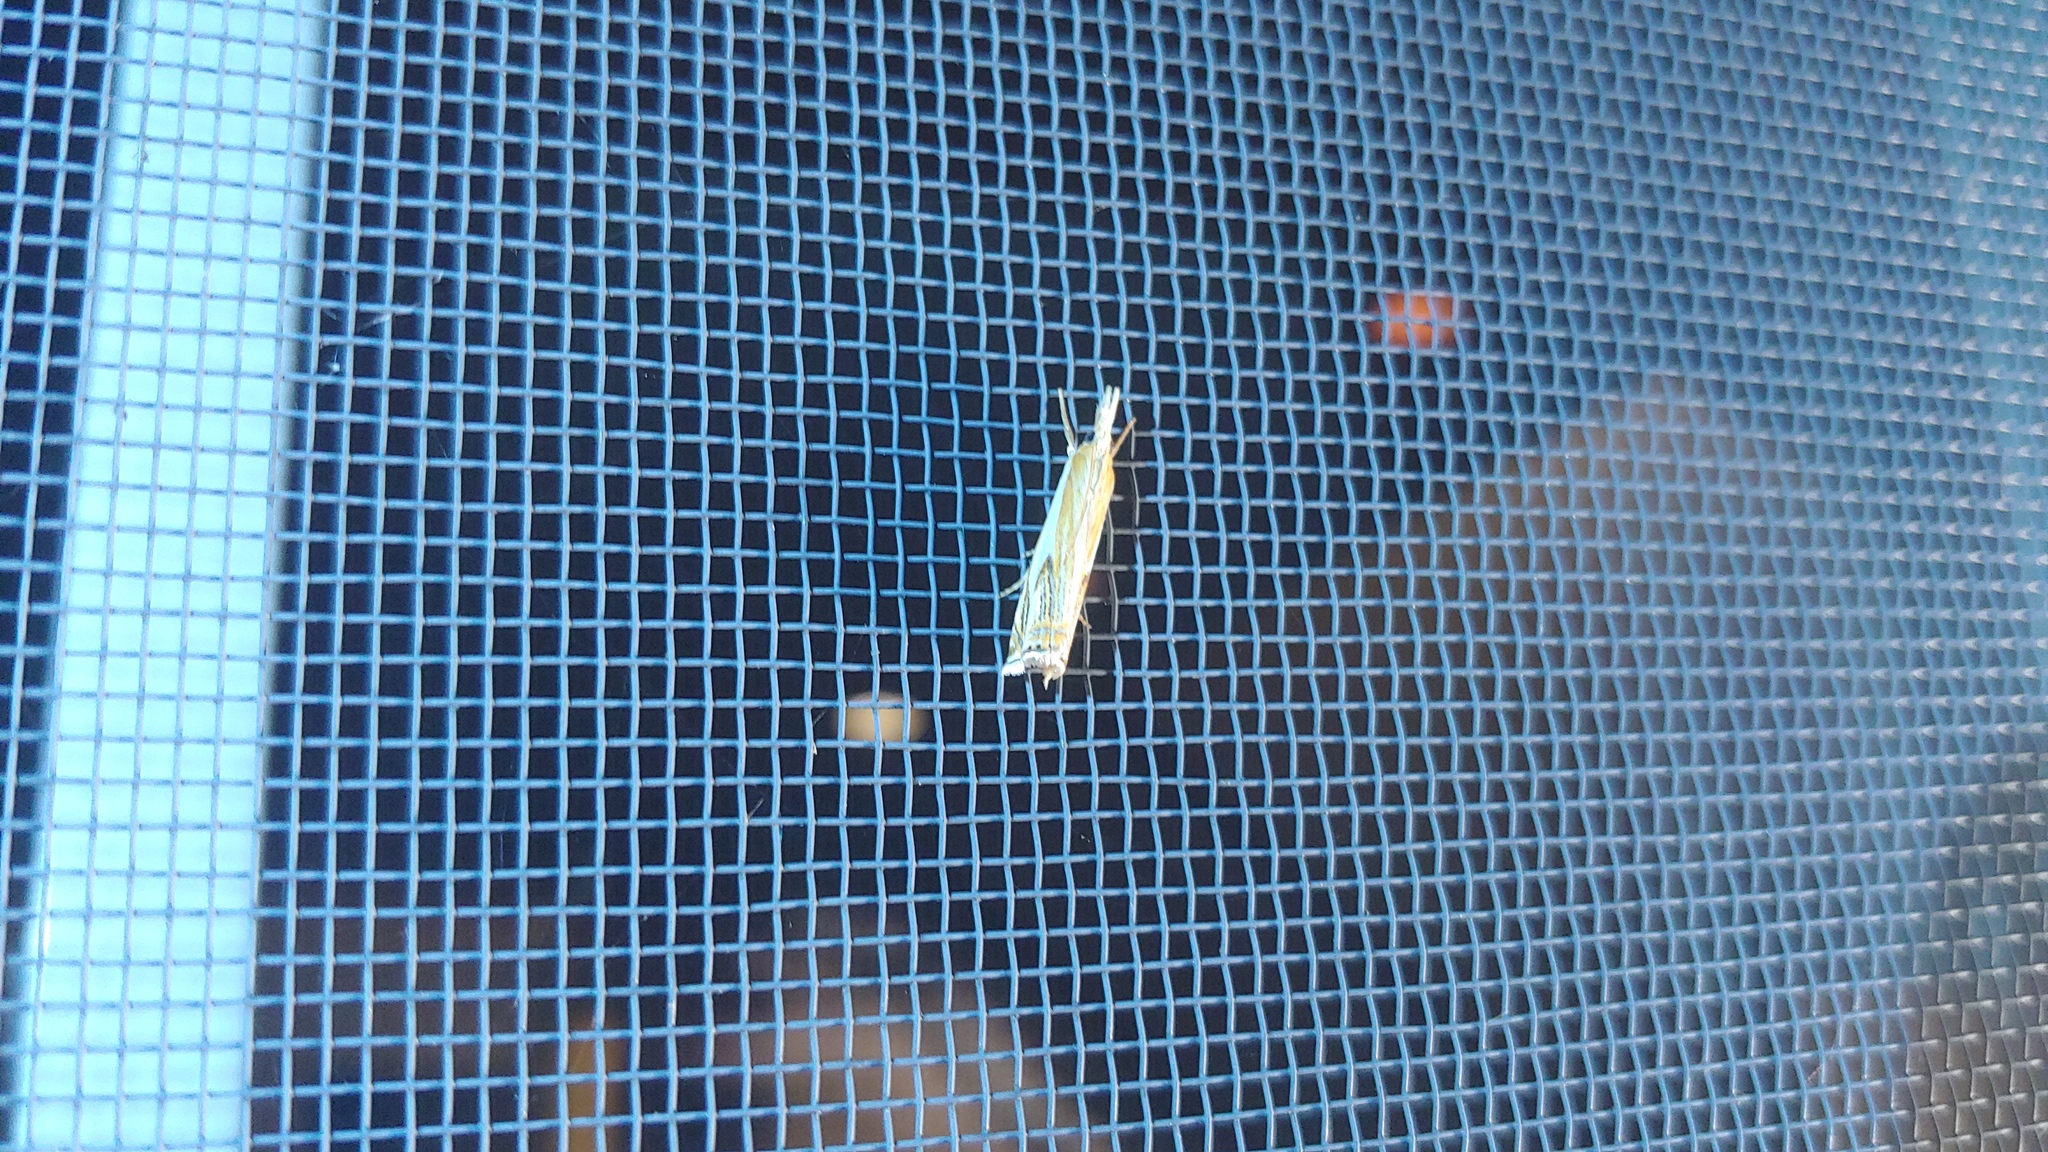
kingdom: Animalia
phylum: Arthropoda
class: Insecta
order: Lepidoptera
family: Crambidae
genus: Crambus
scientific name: Crambus agitatellus
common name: Double-banded grass-veneer
